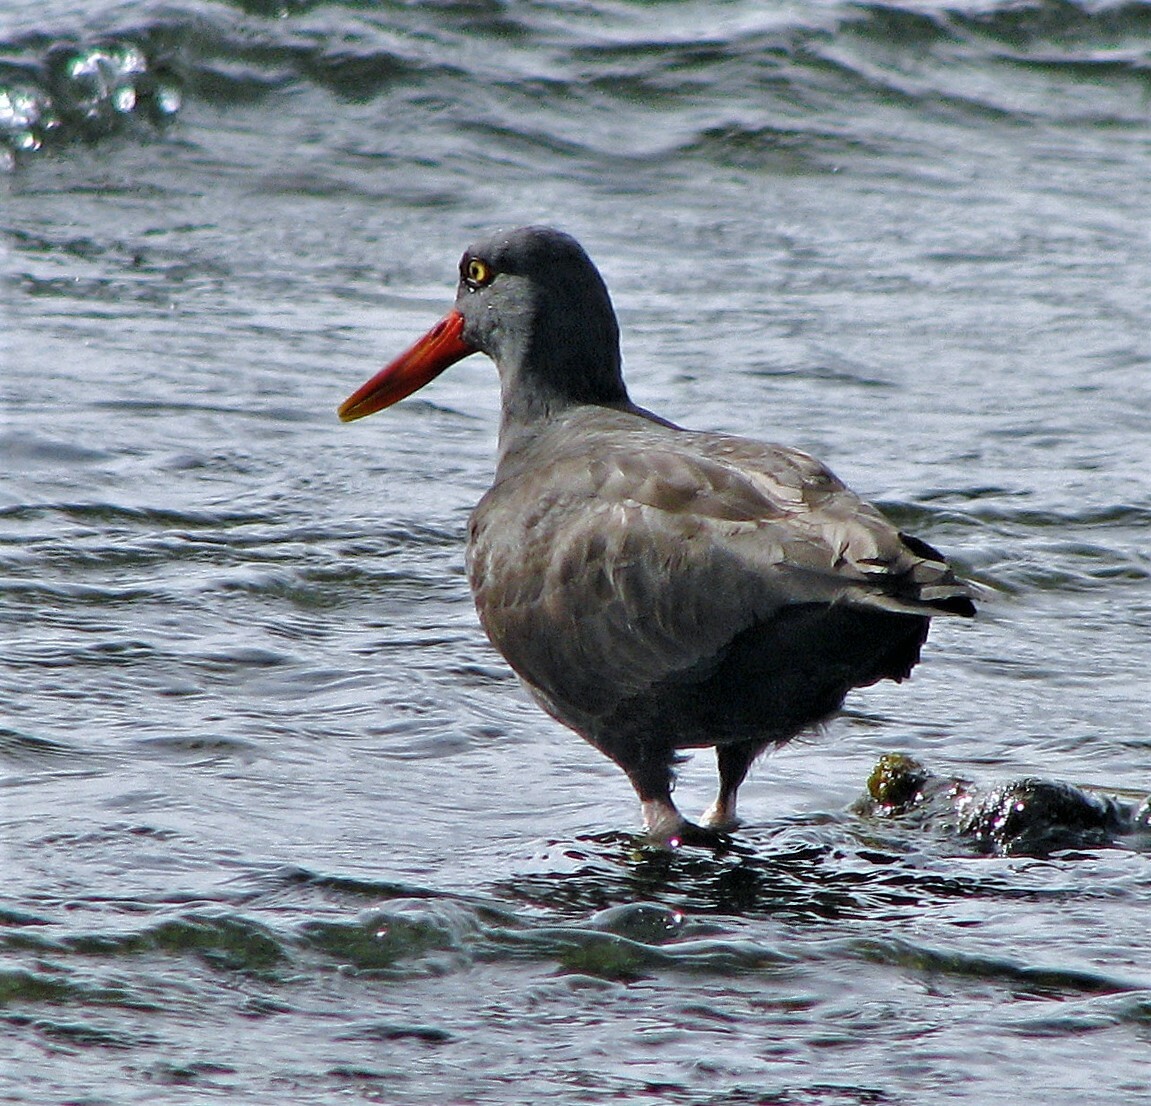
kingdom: Animalia
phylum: Chordata
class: Aves
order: Charadriiformes
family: Haematopodidae
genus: Haematopus
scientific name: Haematopus ater
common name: Blackish oystercatcher
